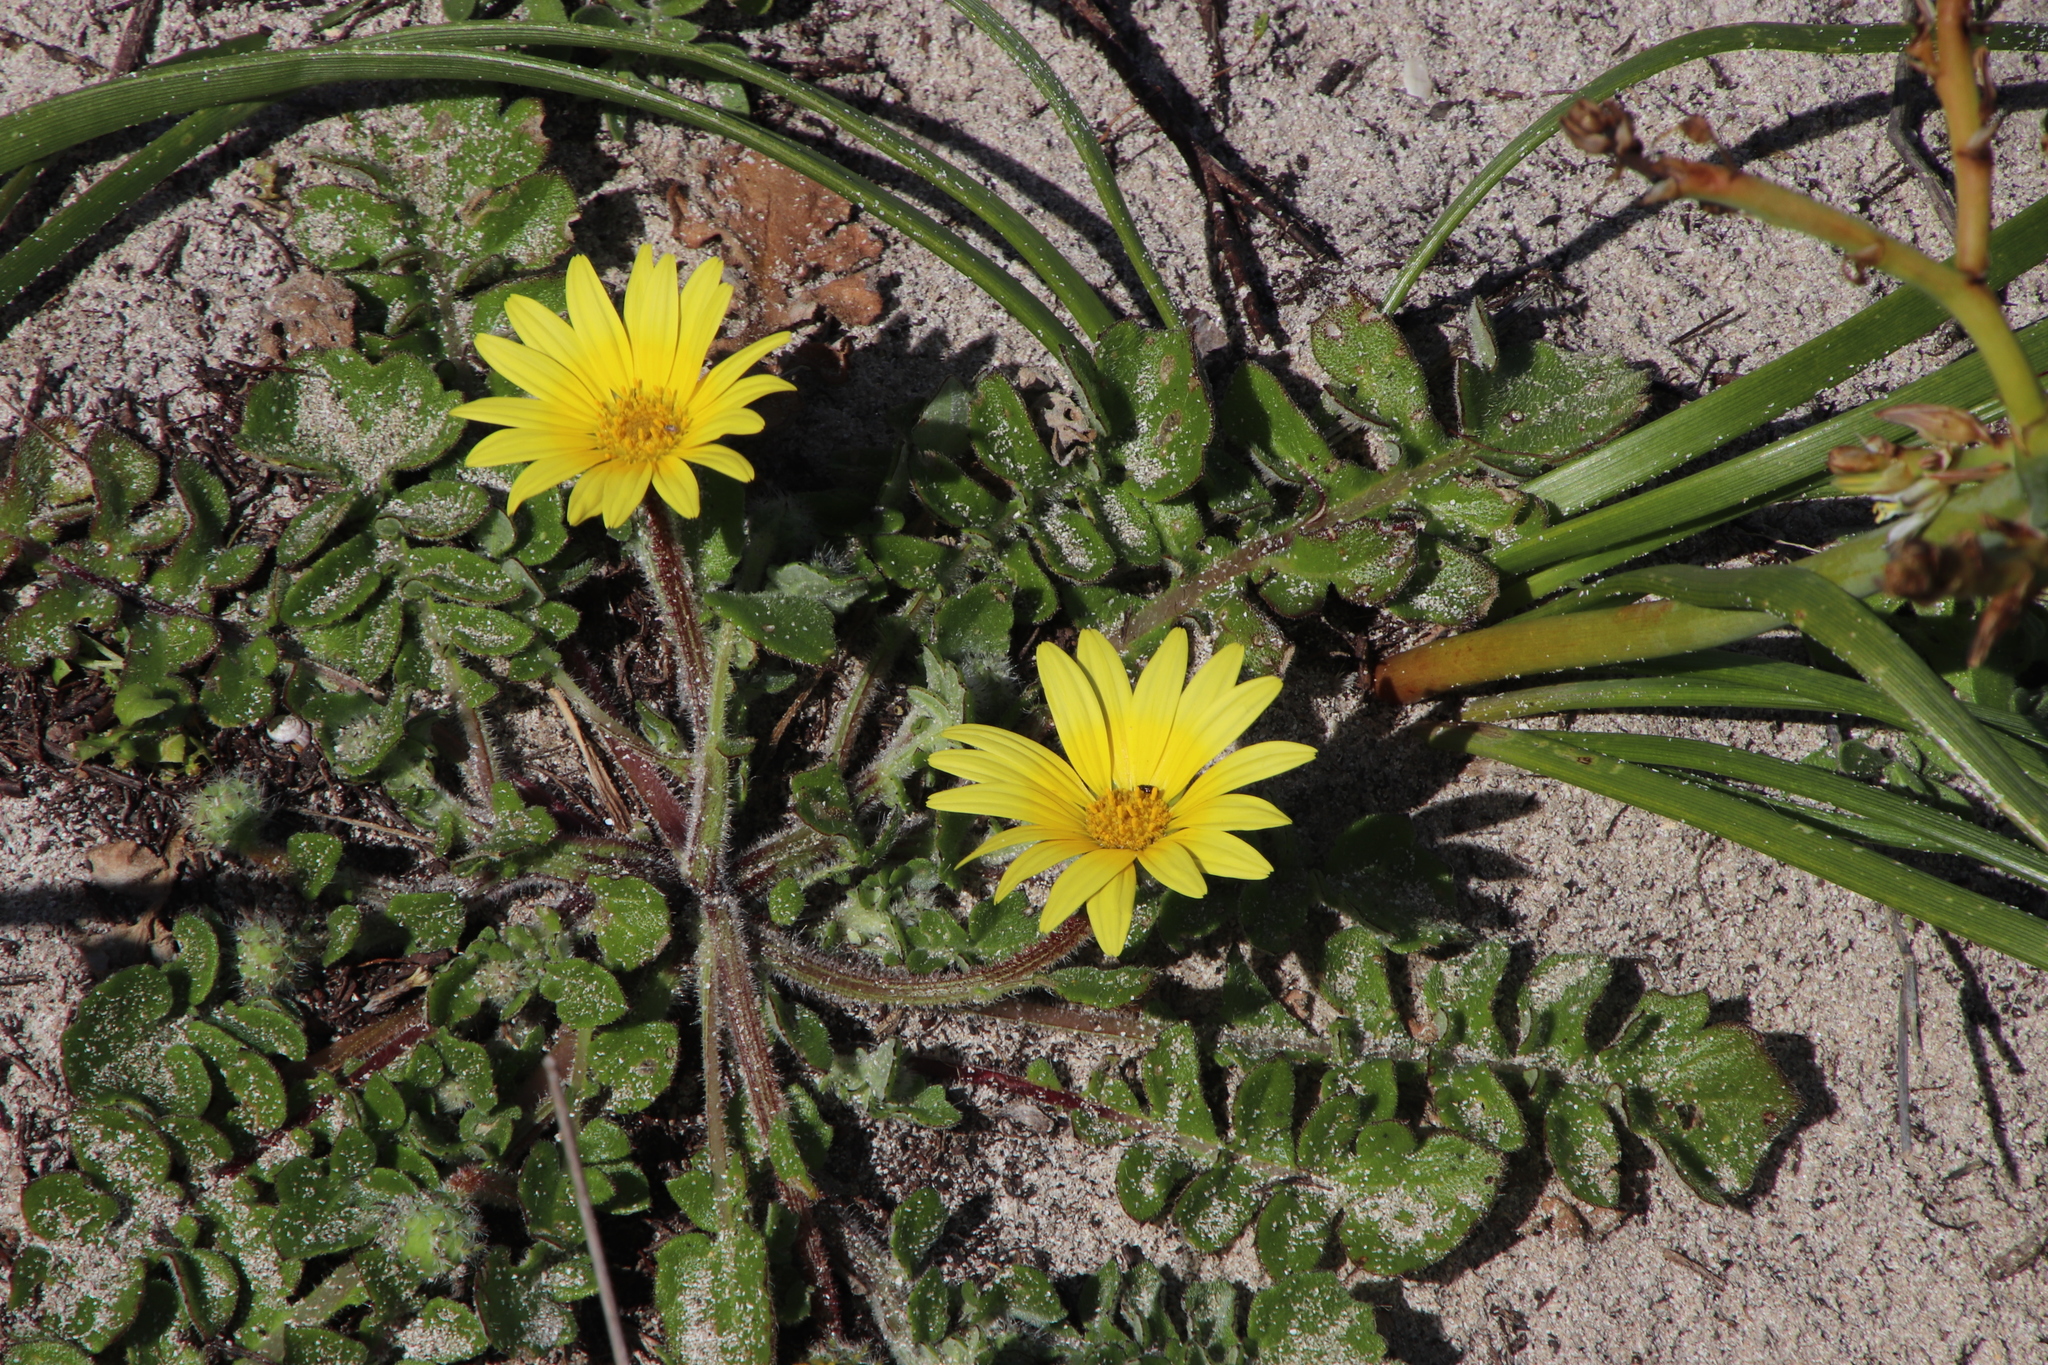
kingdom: Plantae
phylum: Tracheophyta
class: Magnoliopsida
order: Asterales
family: Asteraceae
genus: Arctotheca
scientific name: Arctotheca calendula
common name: Capeweed
